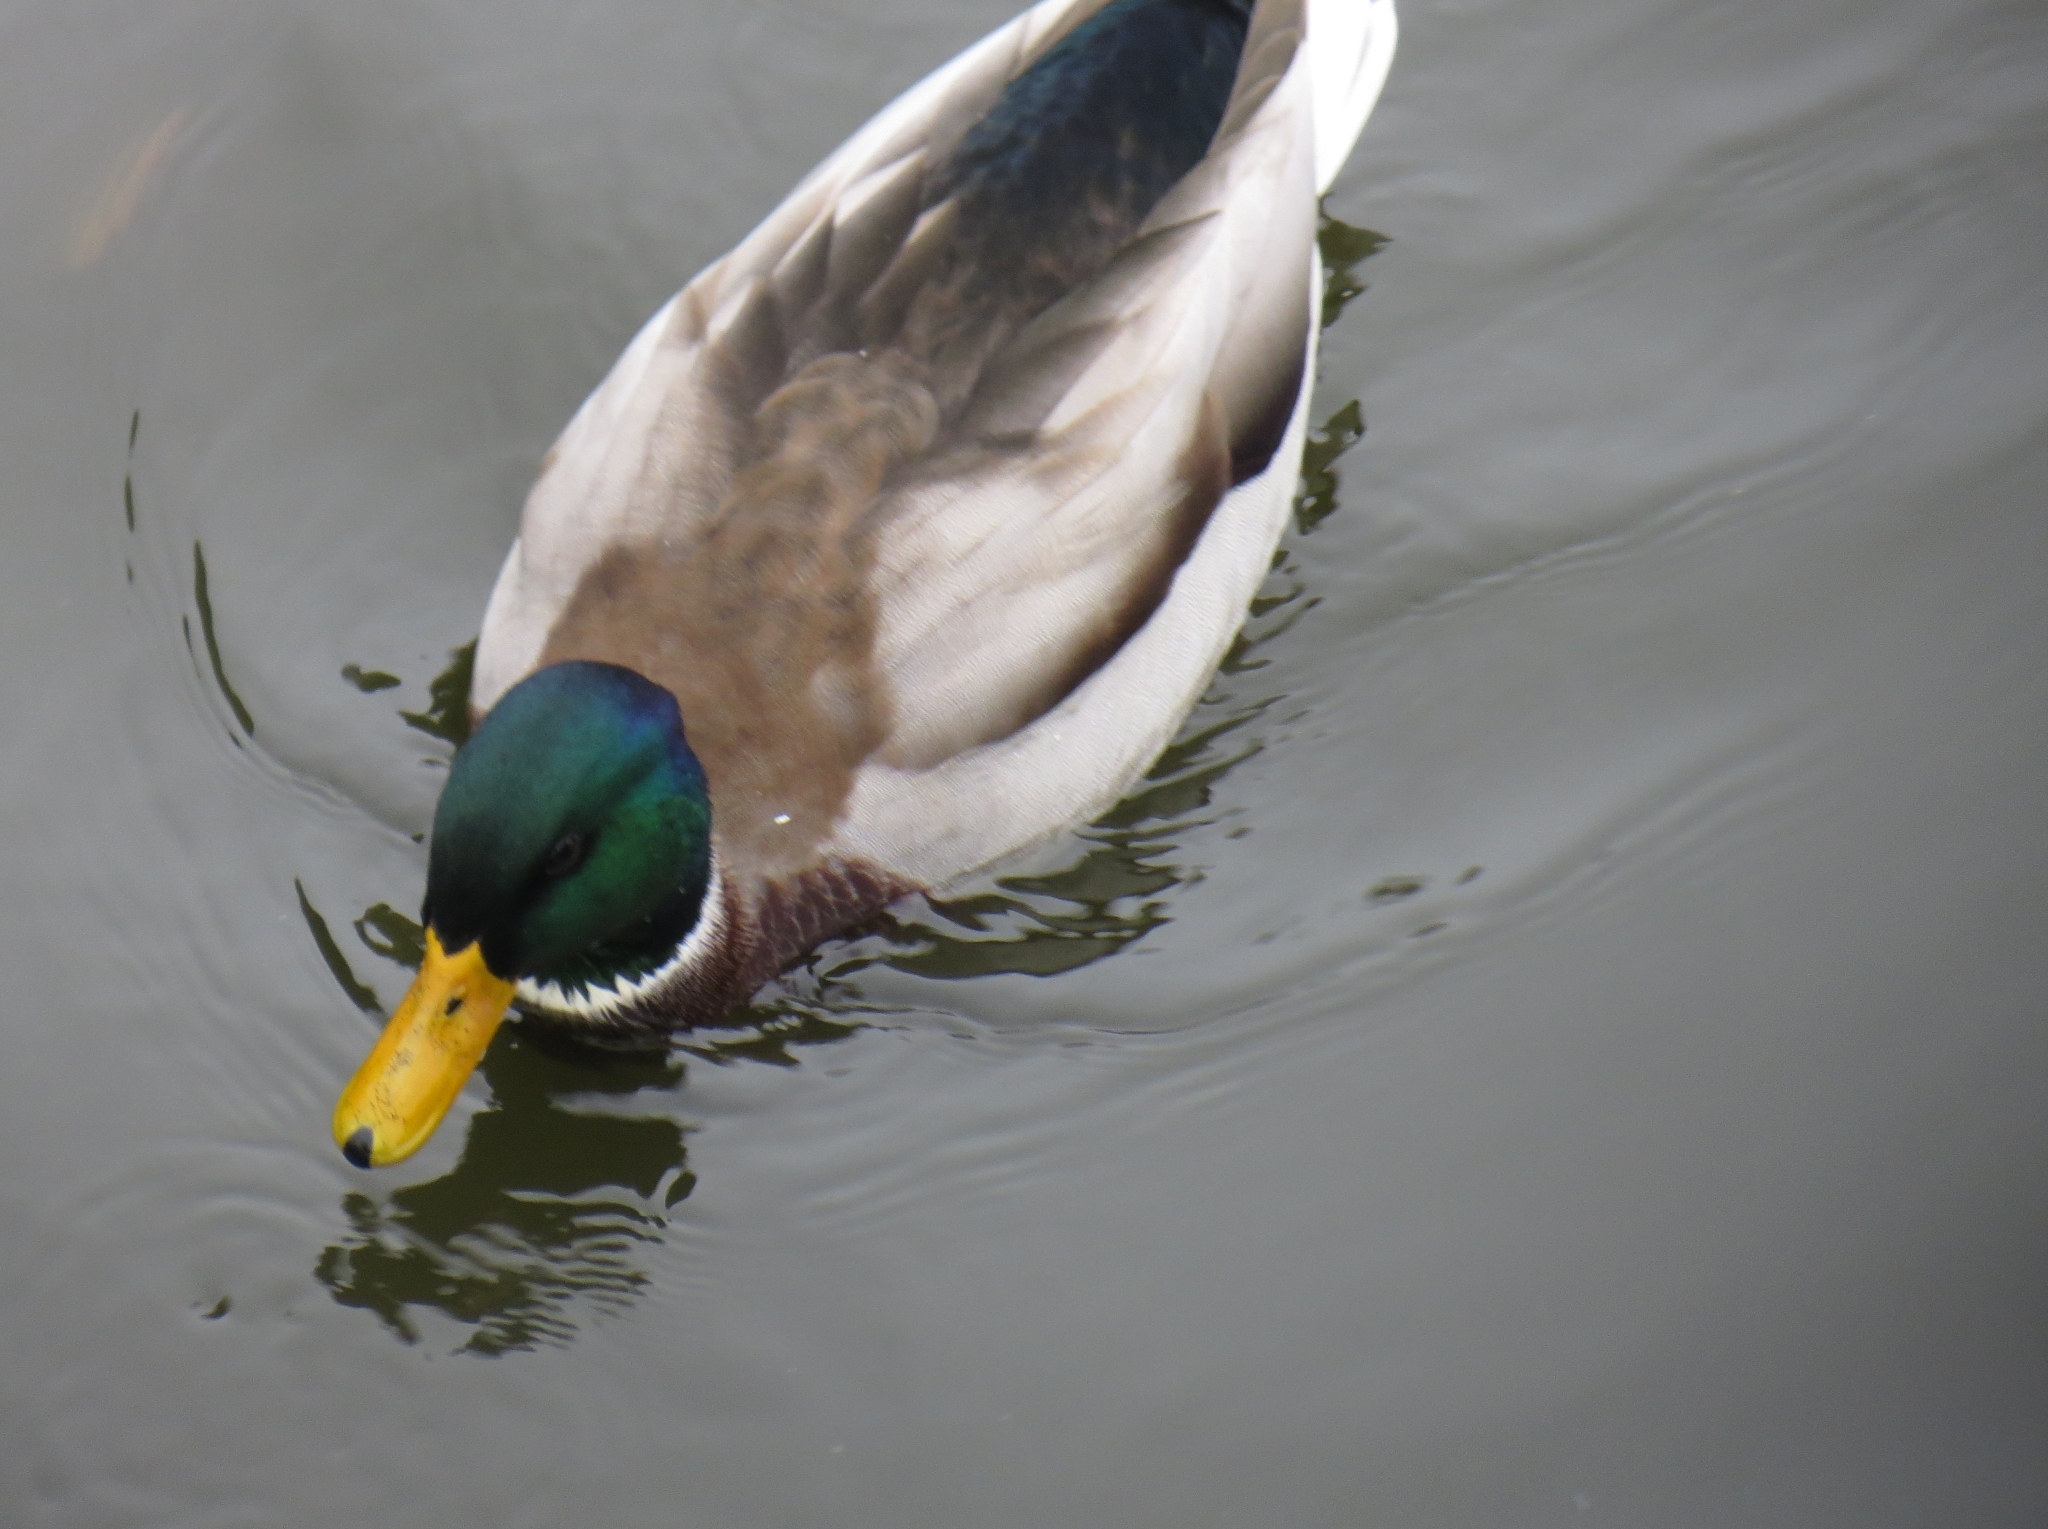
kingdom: Animalia
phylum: Chordata
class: Aves
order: Anseriformes
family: Anatidae
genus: Anas
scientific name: Anas platyrhynchos
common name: Mallard
